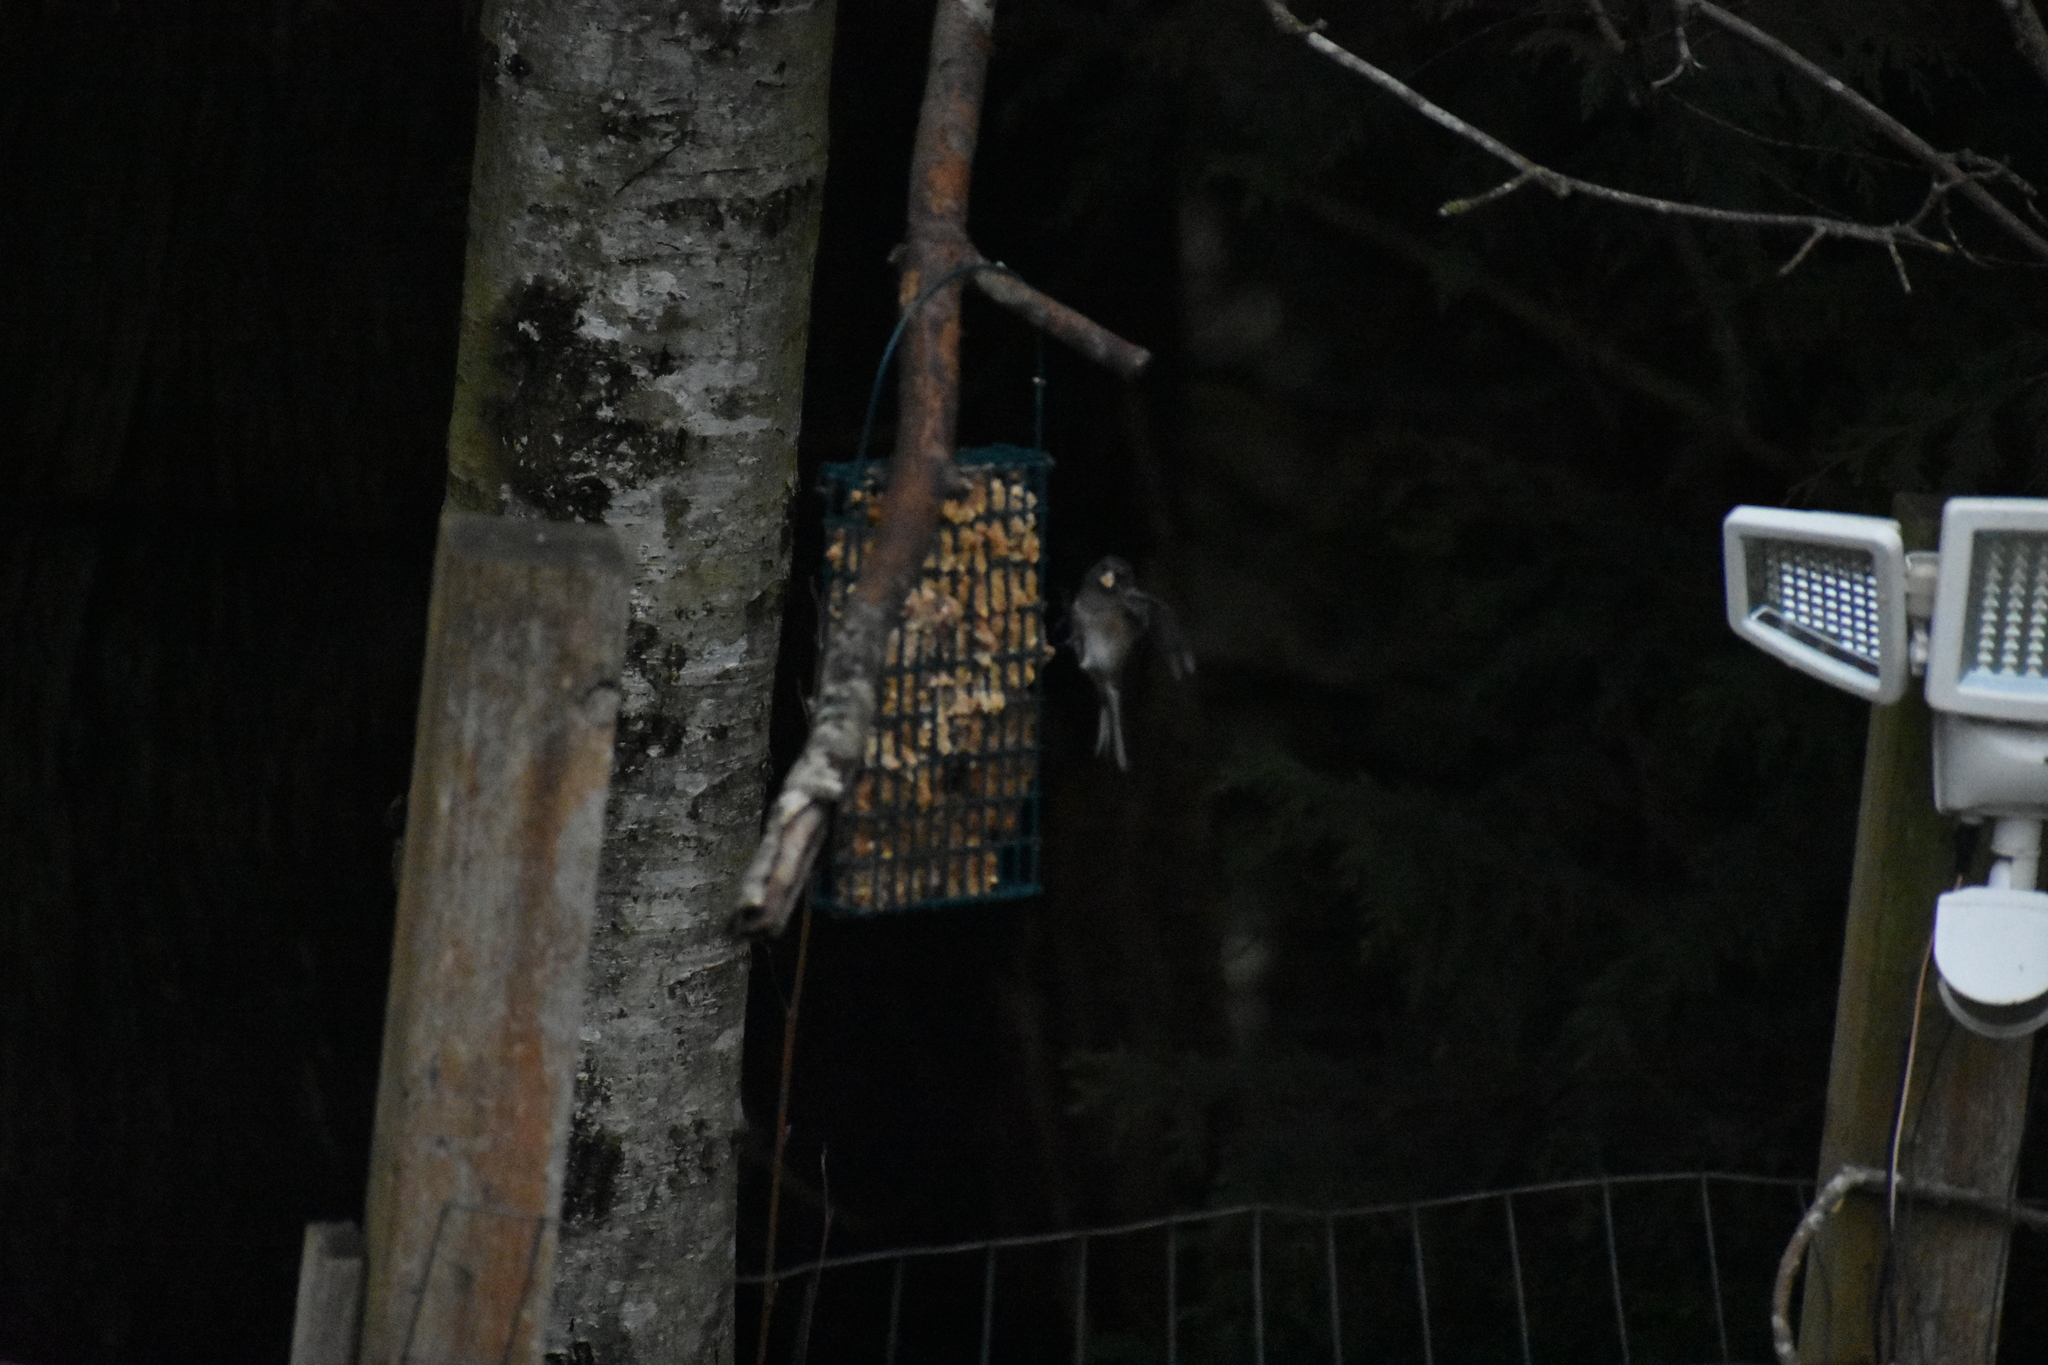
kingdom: Animalia
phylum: Chordata
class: Aves
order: Passeriformes
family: Passerellidae
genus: Junco
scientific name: Junco hyemalis
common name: Dark-eyed junco
